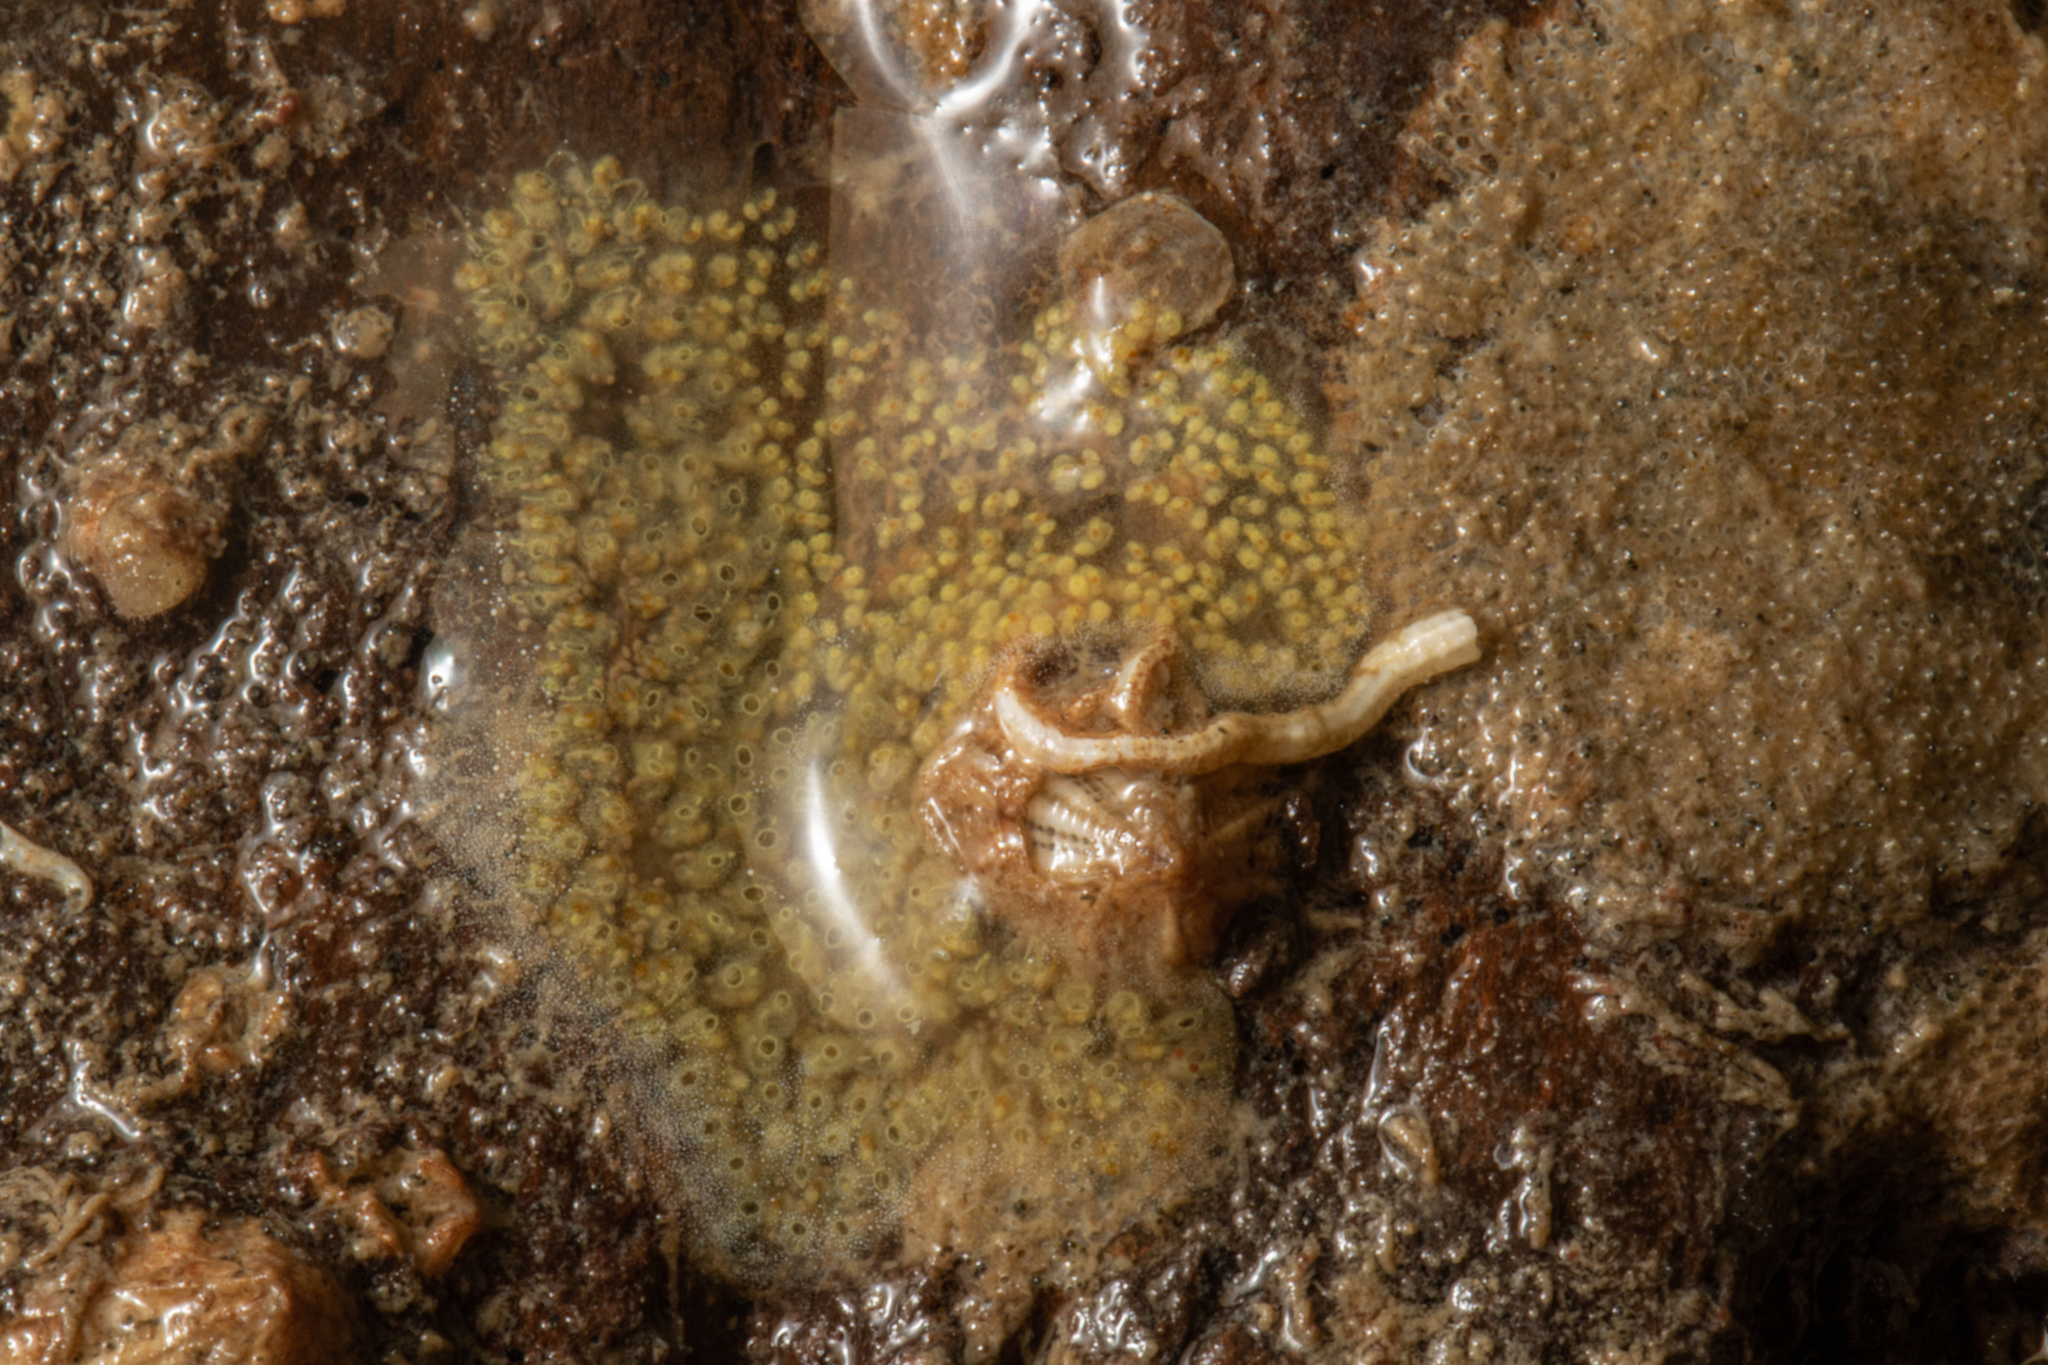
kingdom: Animalia
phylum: Chordata
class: Ascidiacea
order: Stolidobranchia
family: Styelidae
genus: Symplegma
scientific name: Symplegma brakenhielmi
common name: Ascidian
